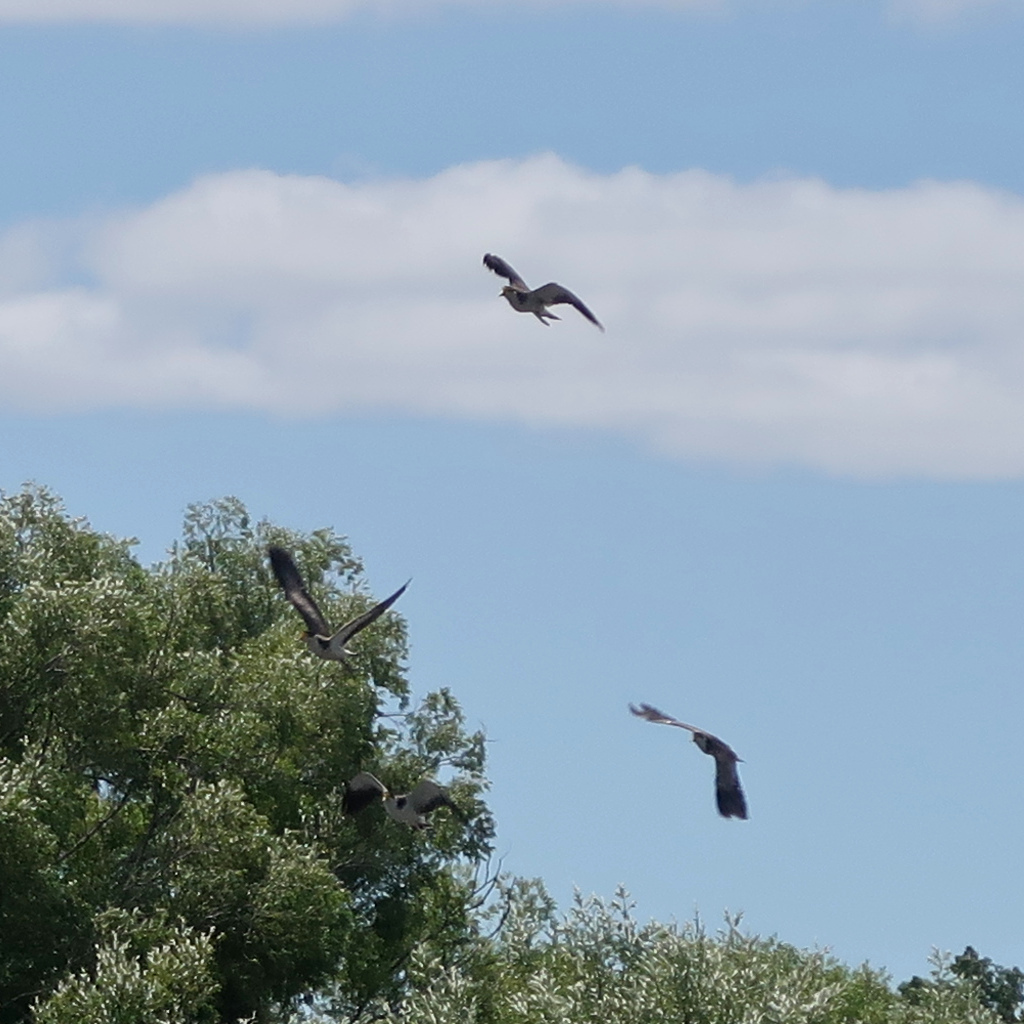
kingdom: Animalia
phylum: Chordata
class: Aves
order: Charadriiformes
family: Charadriidae
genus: Vanellus
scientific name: Vanellus miles
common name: Masked lapwing
